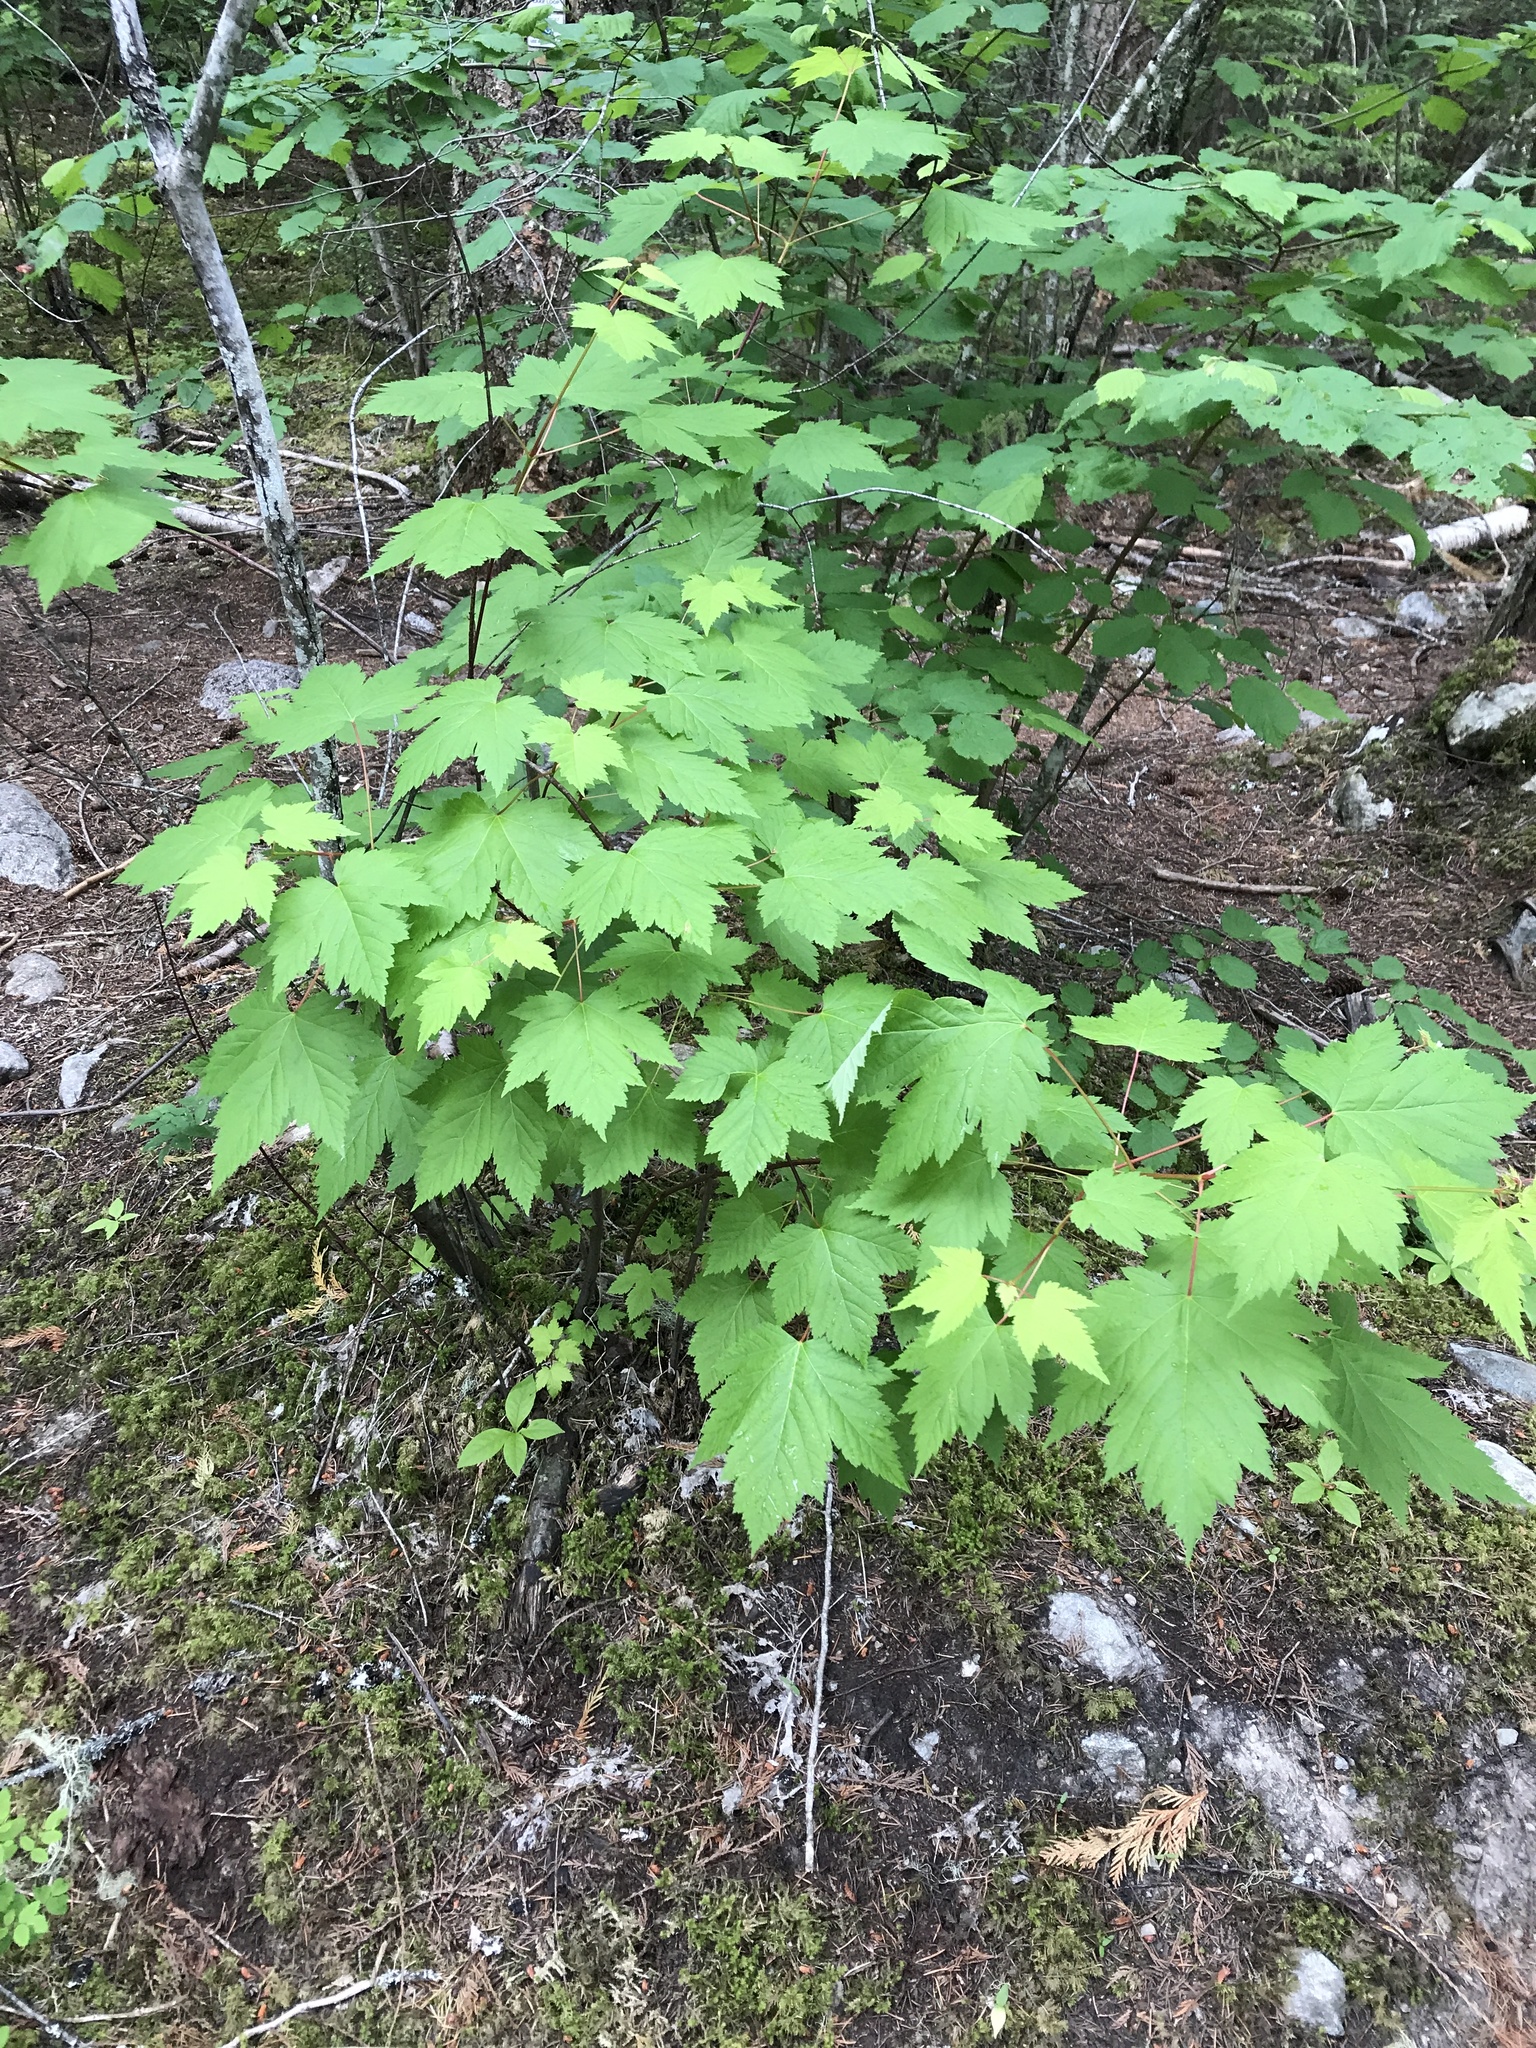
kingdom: Plantae
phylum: Tracheophyta
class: Magnoliopsida
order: Sapindales
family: Sapindaceae
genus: Acer
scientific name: Acer glabrum
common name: Rocky mountain maple
